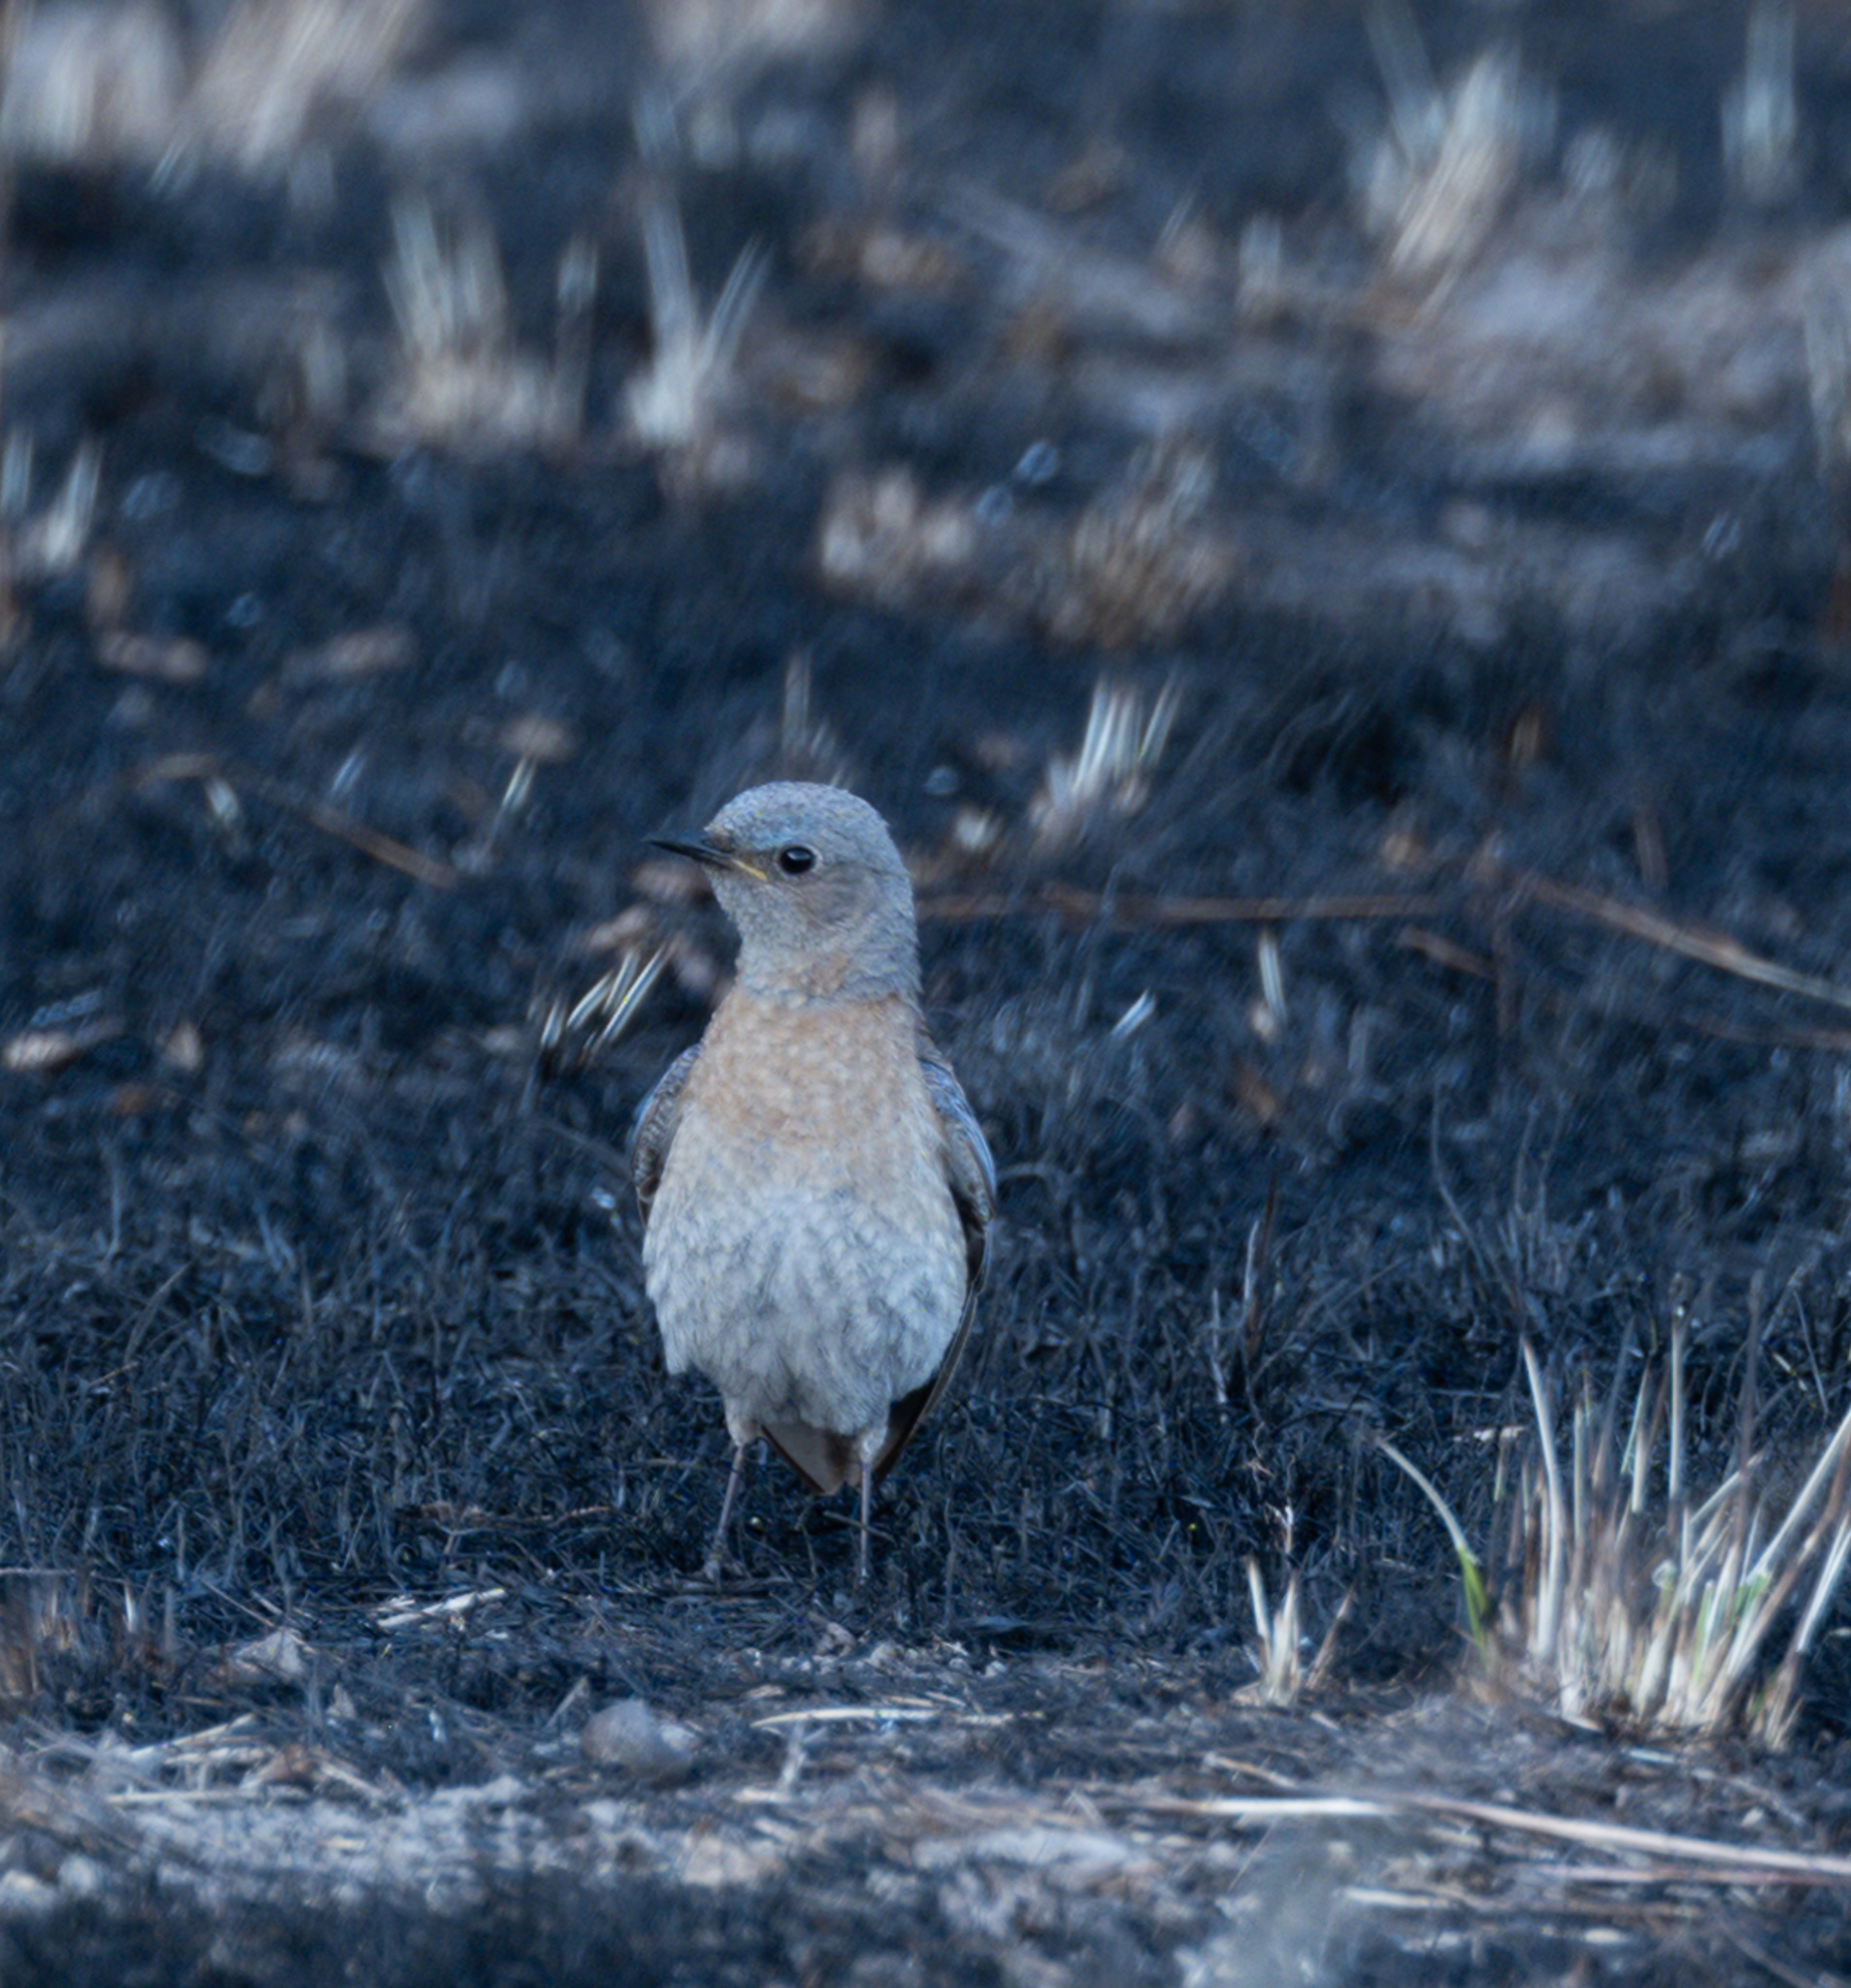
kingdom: Animalia
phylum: Chordata
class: Aves
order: Passeriformes
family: Turdidae
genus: Sialia
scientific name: Sialia mexicana
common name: Western bluebird
